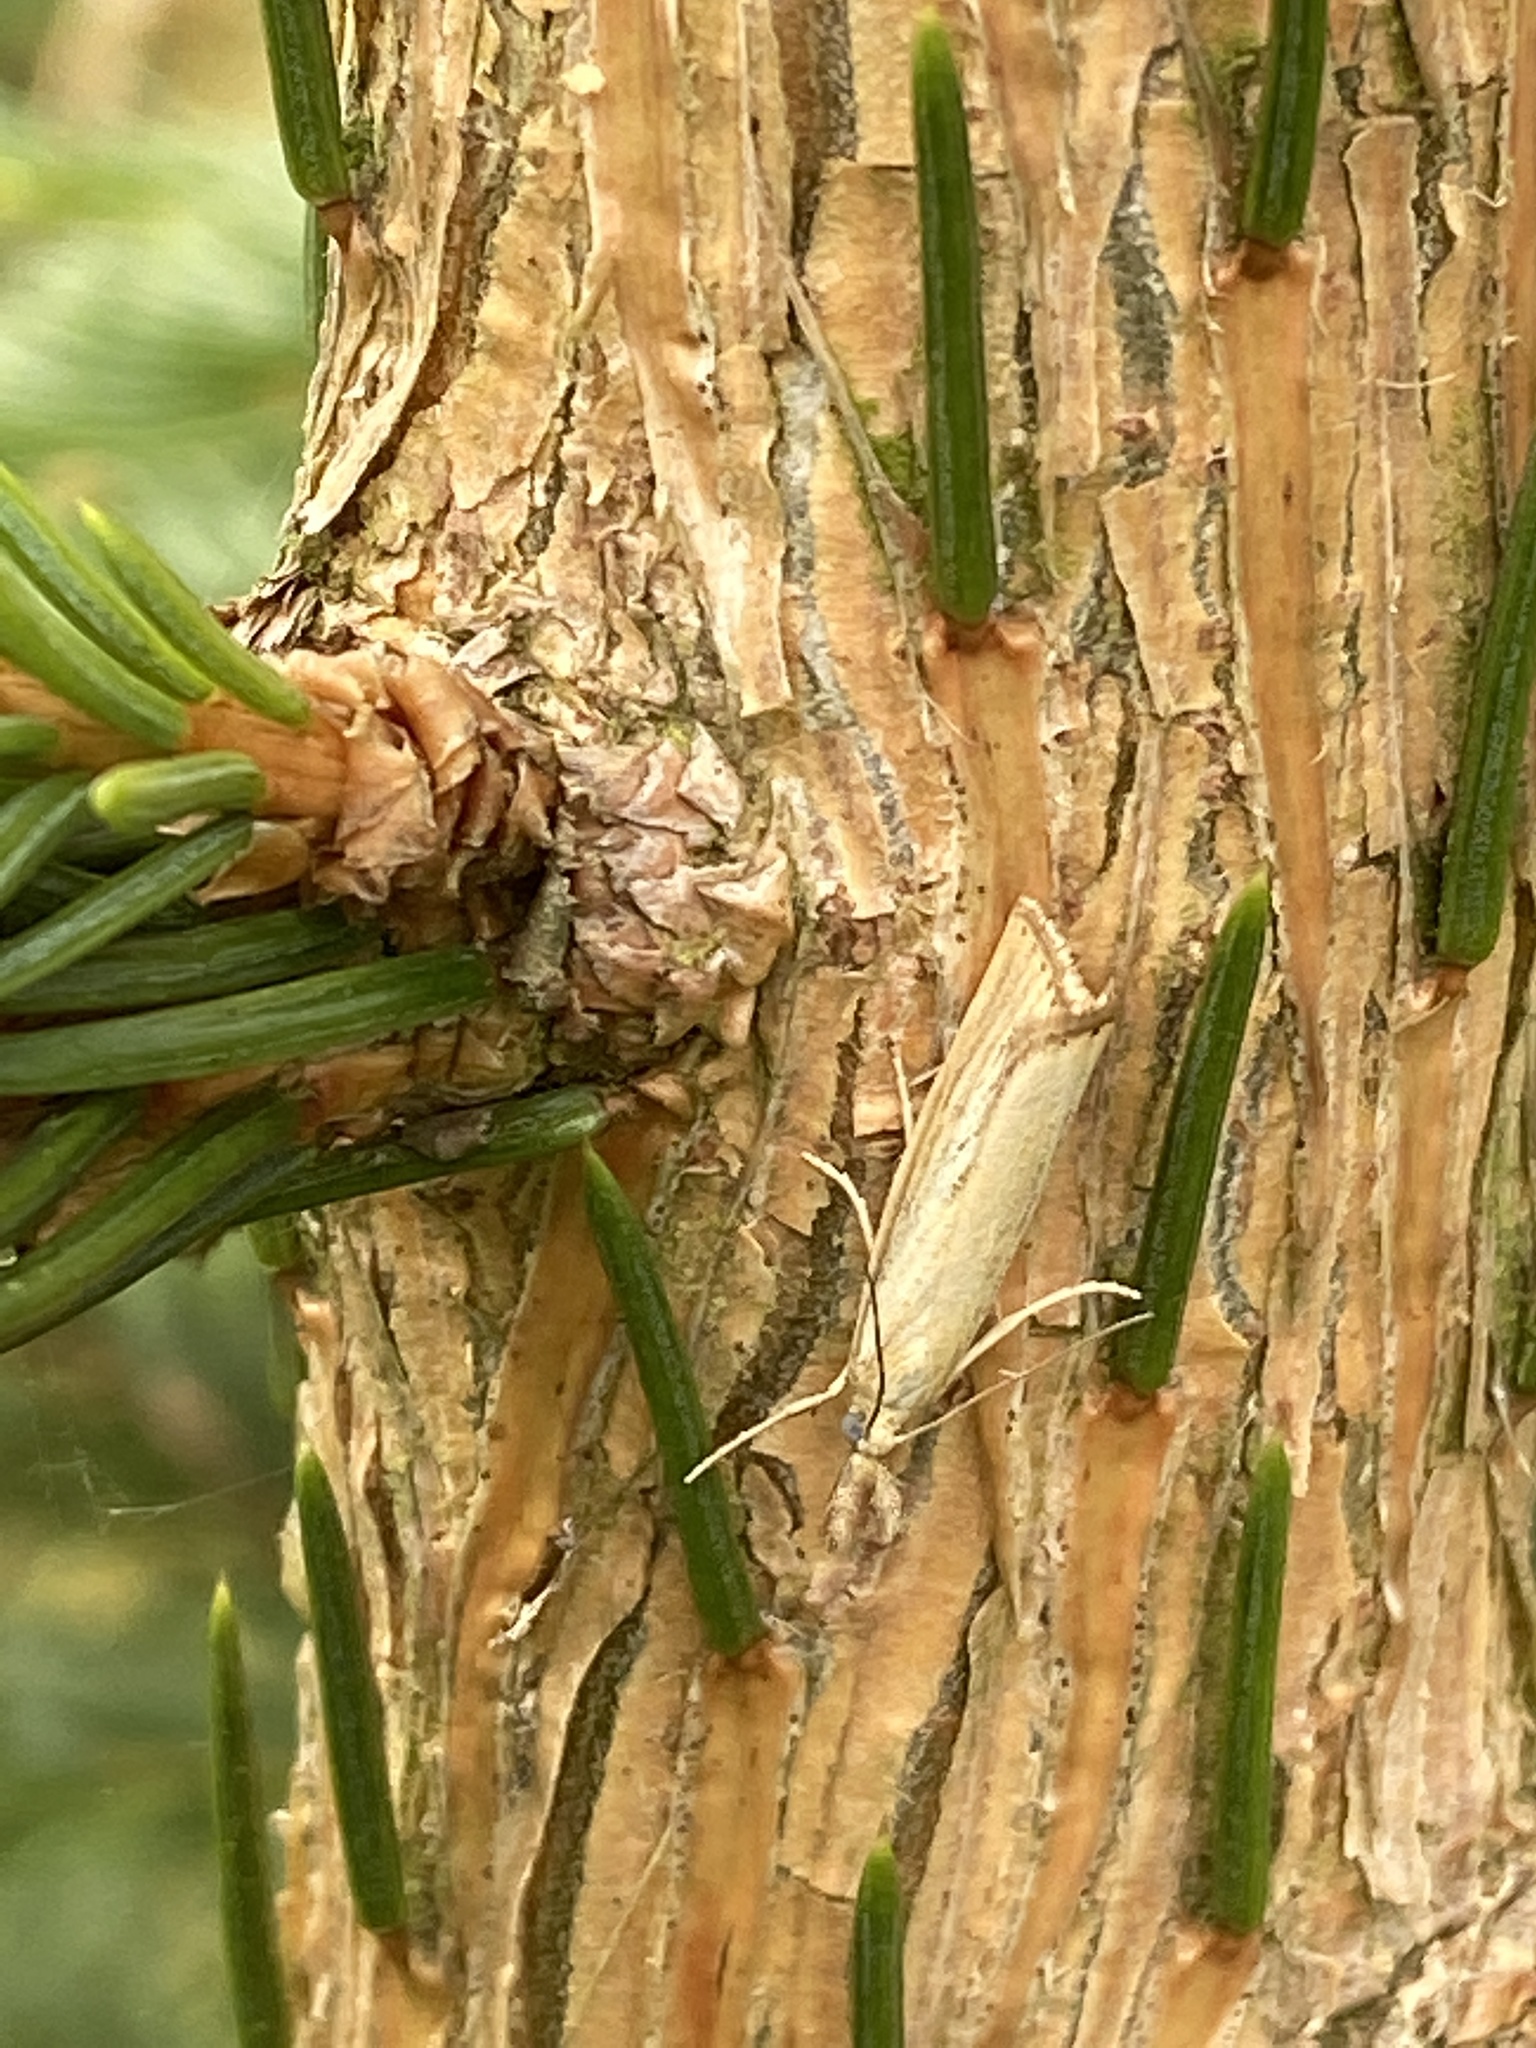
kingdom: Animalia
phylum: Arthropoda
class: Insecta
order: Lepidoptera
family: Crambidae
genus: Agriphila
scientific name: Agriphila straminella
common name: Straw grass-veneer
